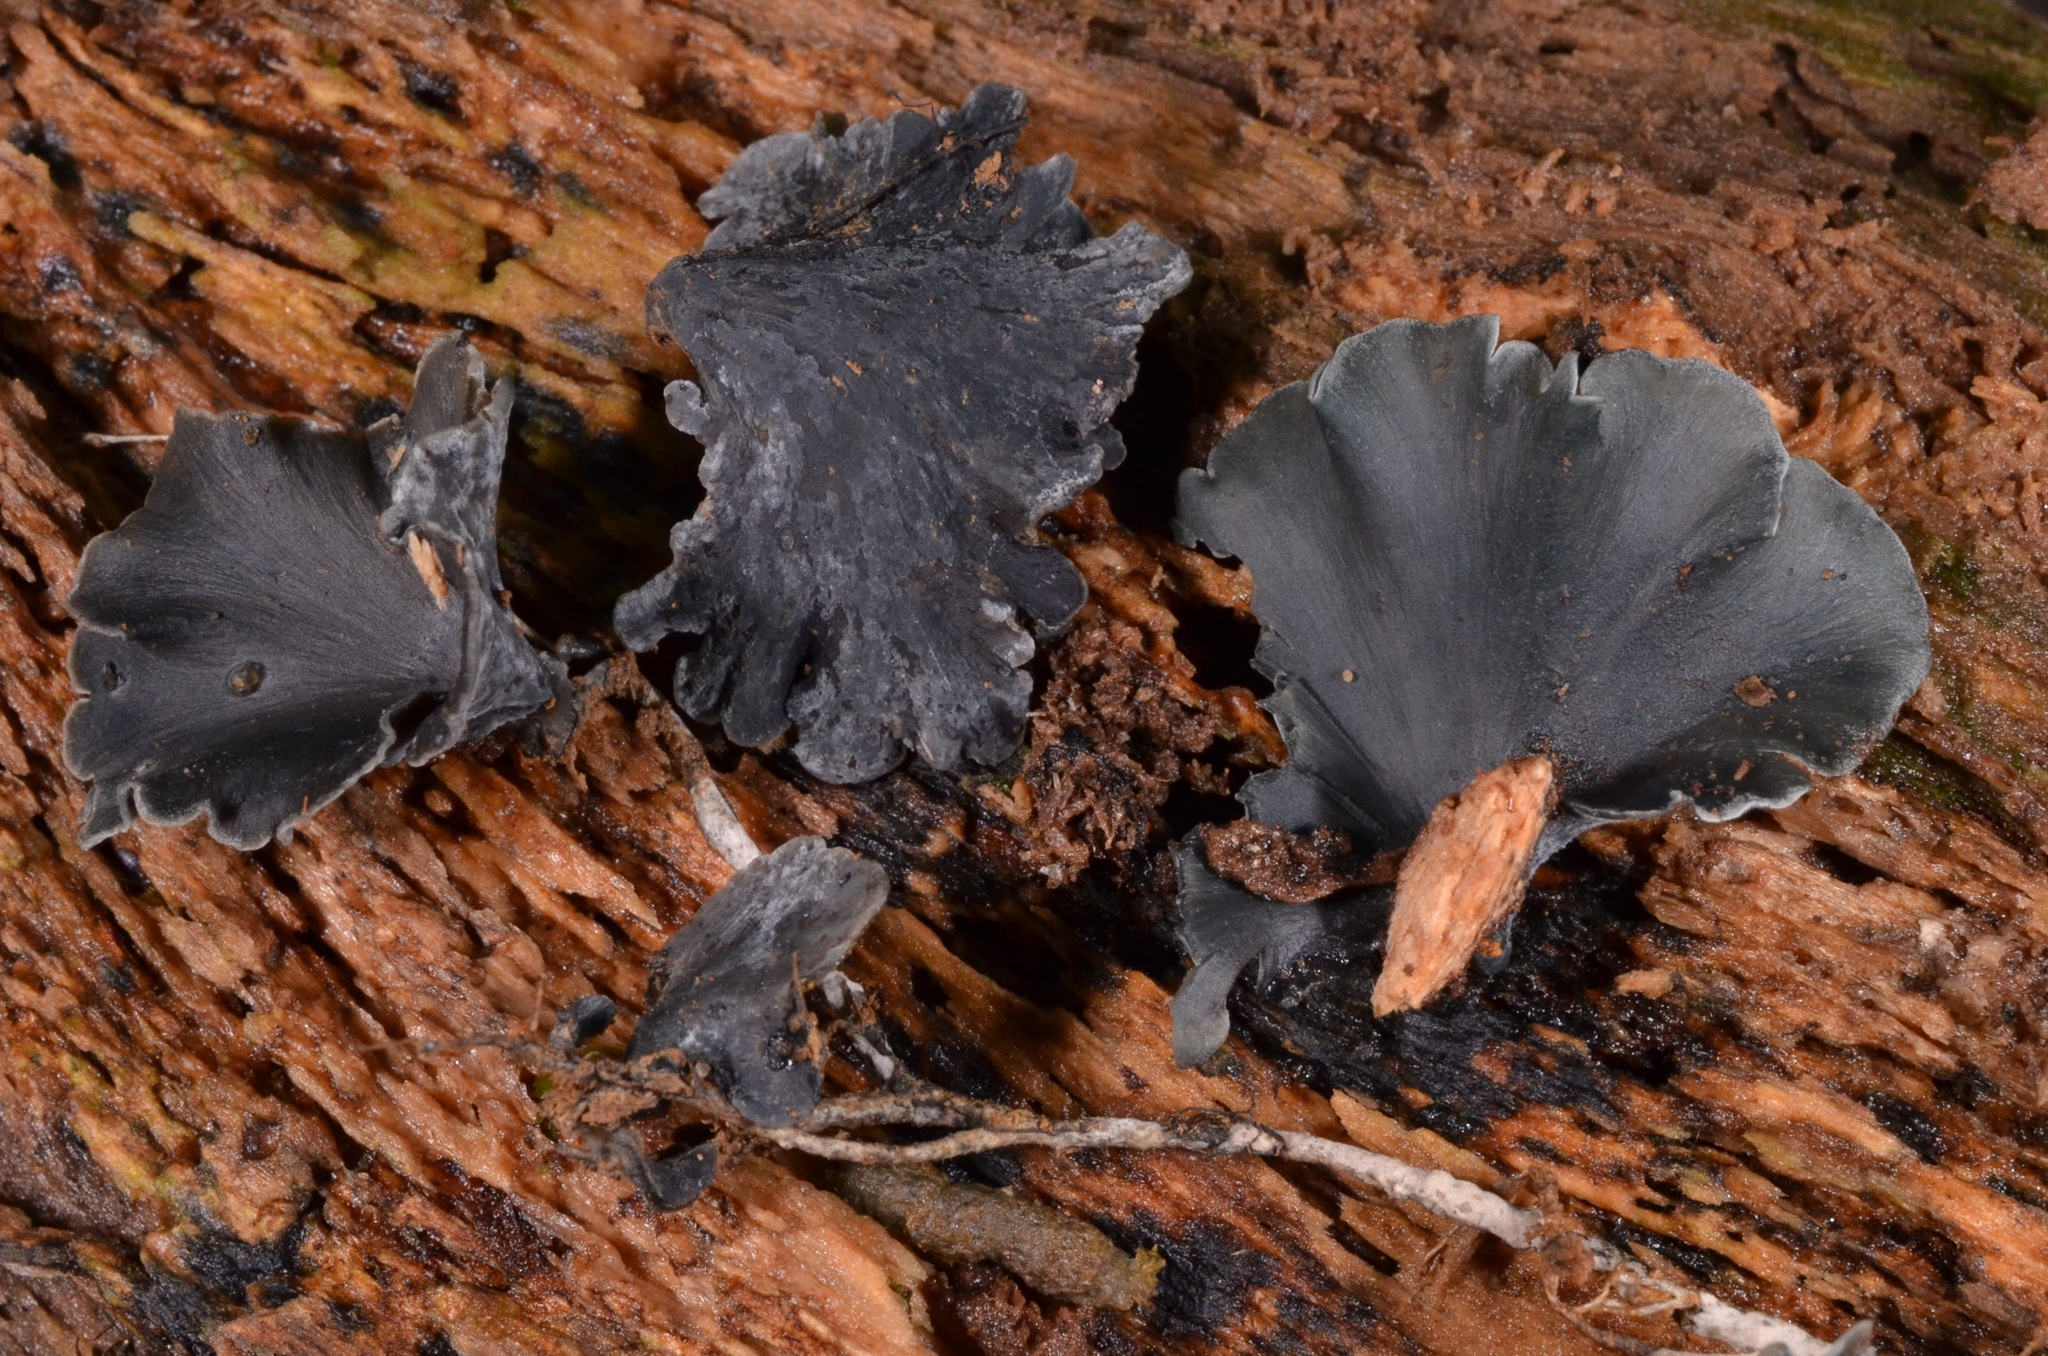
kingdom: Fungi
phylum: Basidiomycota
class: Agaricomycetes
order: Polyporales
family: Phanerochaetaceae
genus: Inflatostereum
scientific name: Inflatostereum glabrum
